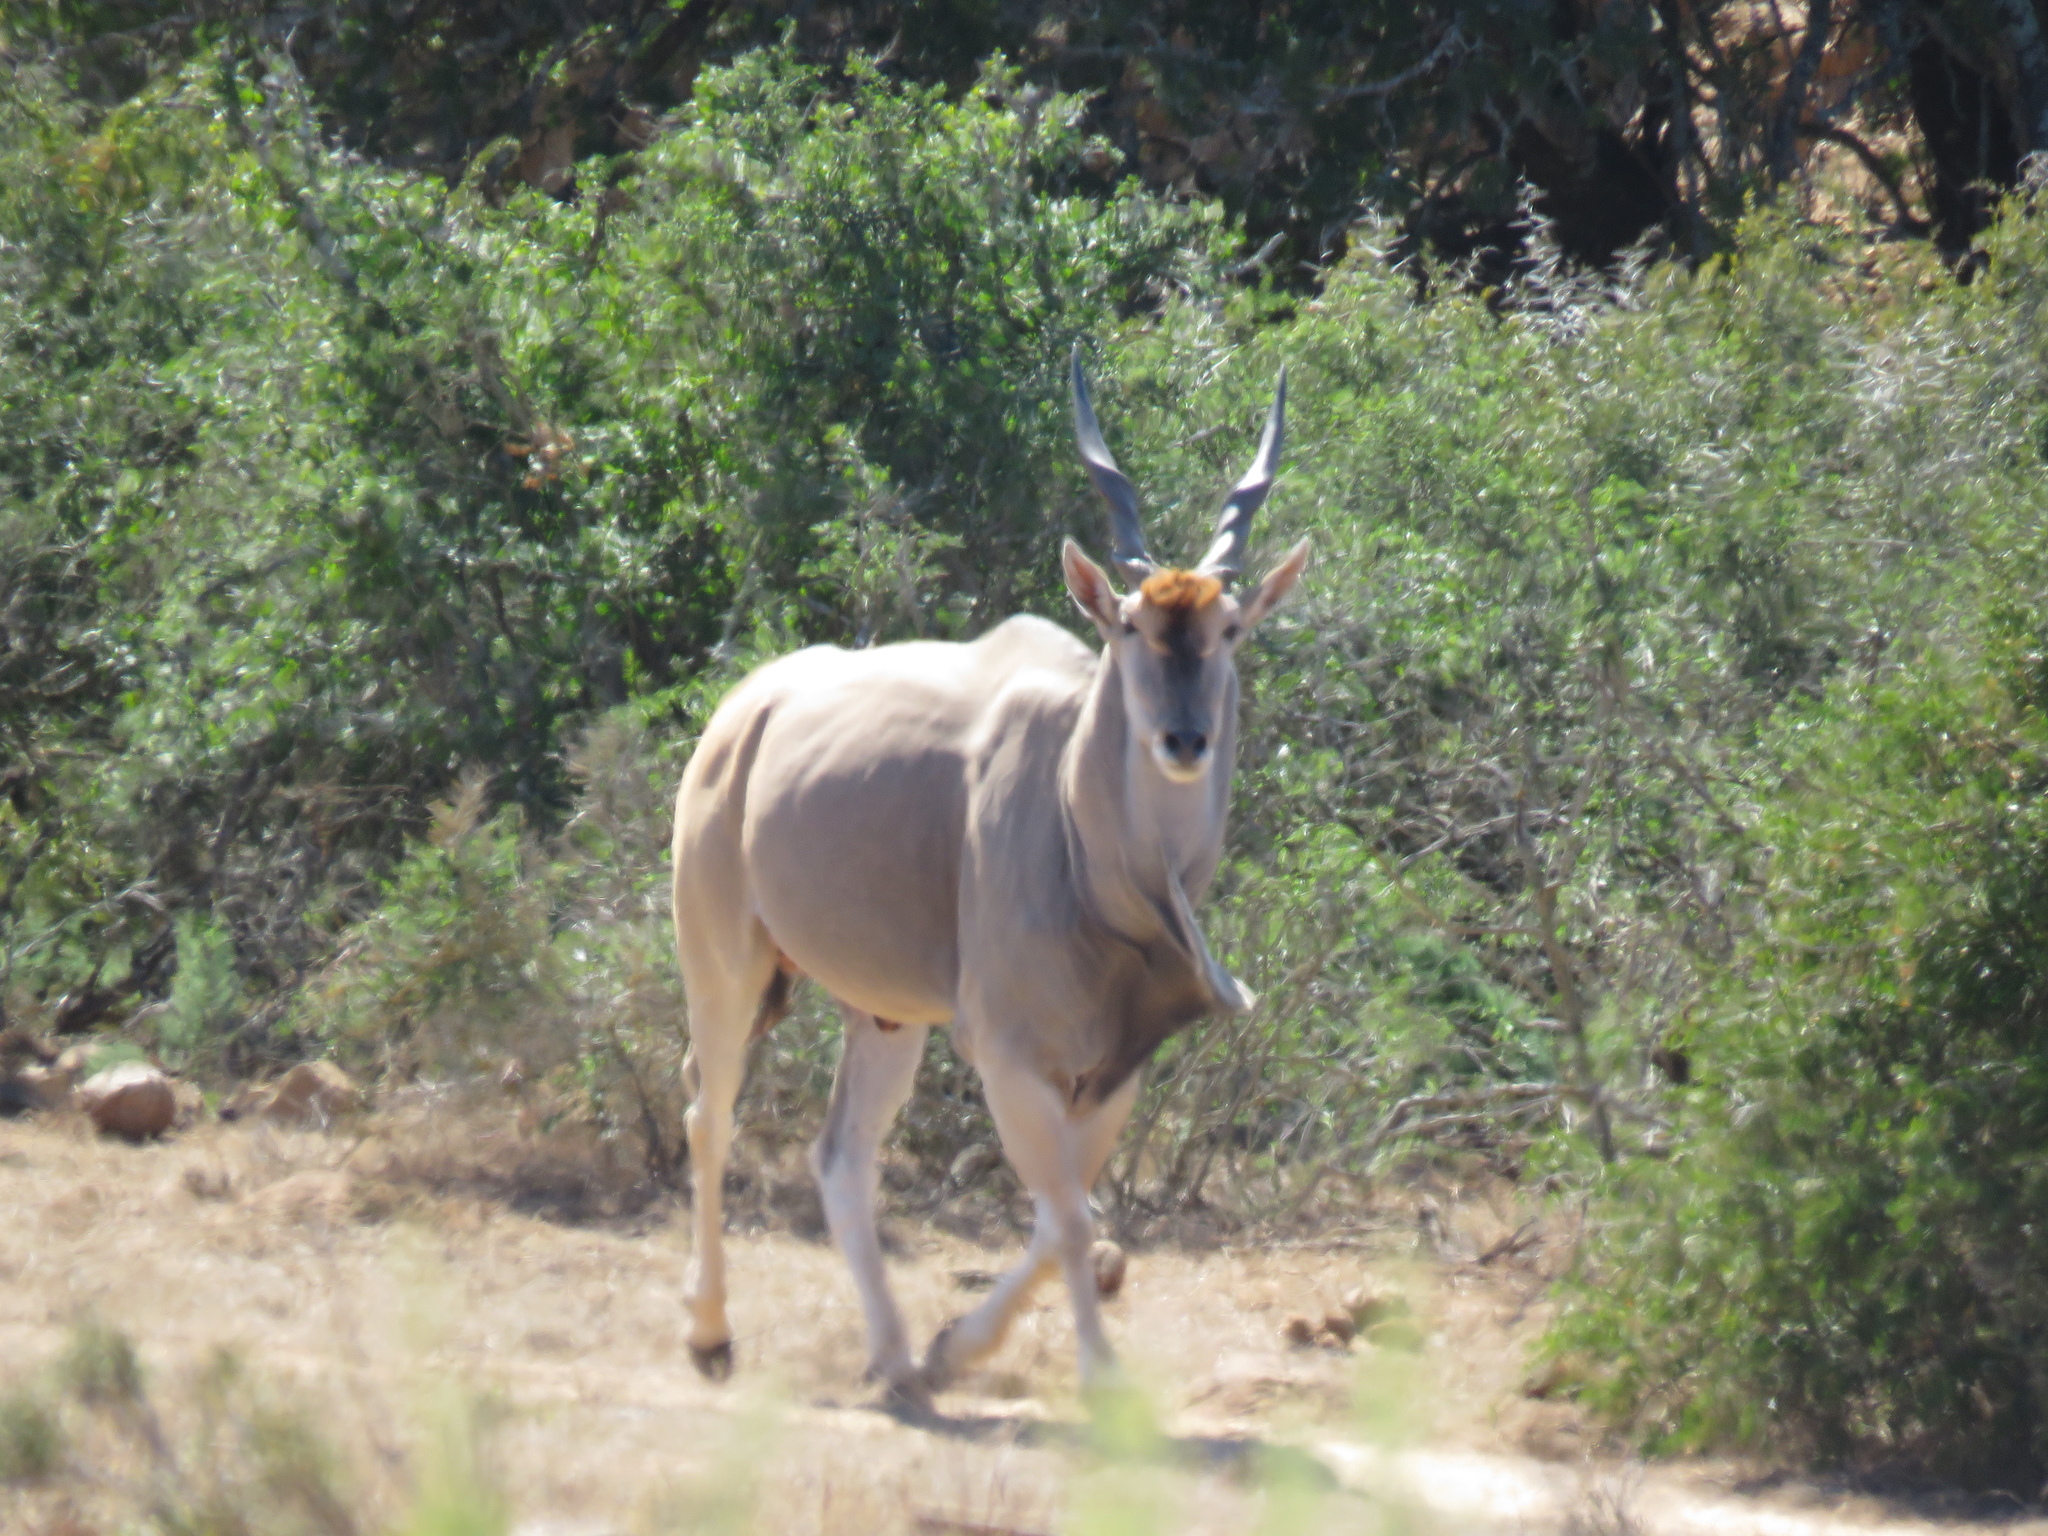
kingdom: Animalia
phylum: Chordata
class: Mammalia
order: Artiodactyla
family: Bovidae
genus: Taurotragus
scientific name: Taurotragus oryx
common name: Common eland
